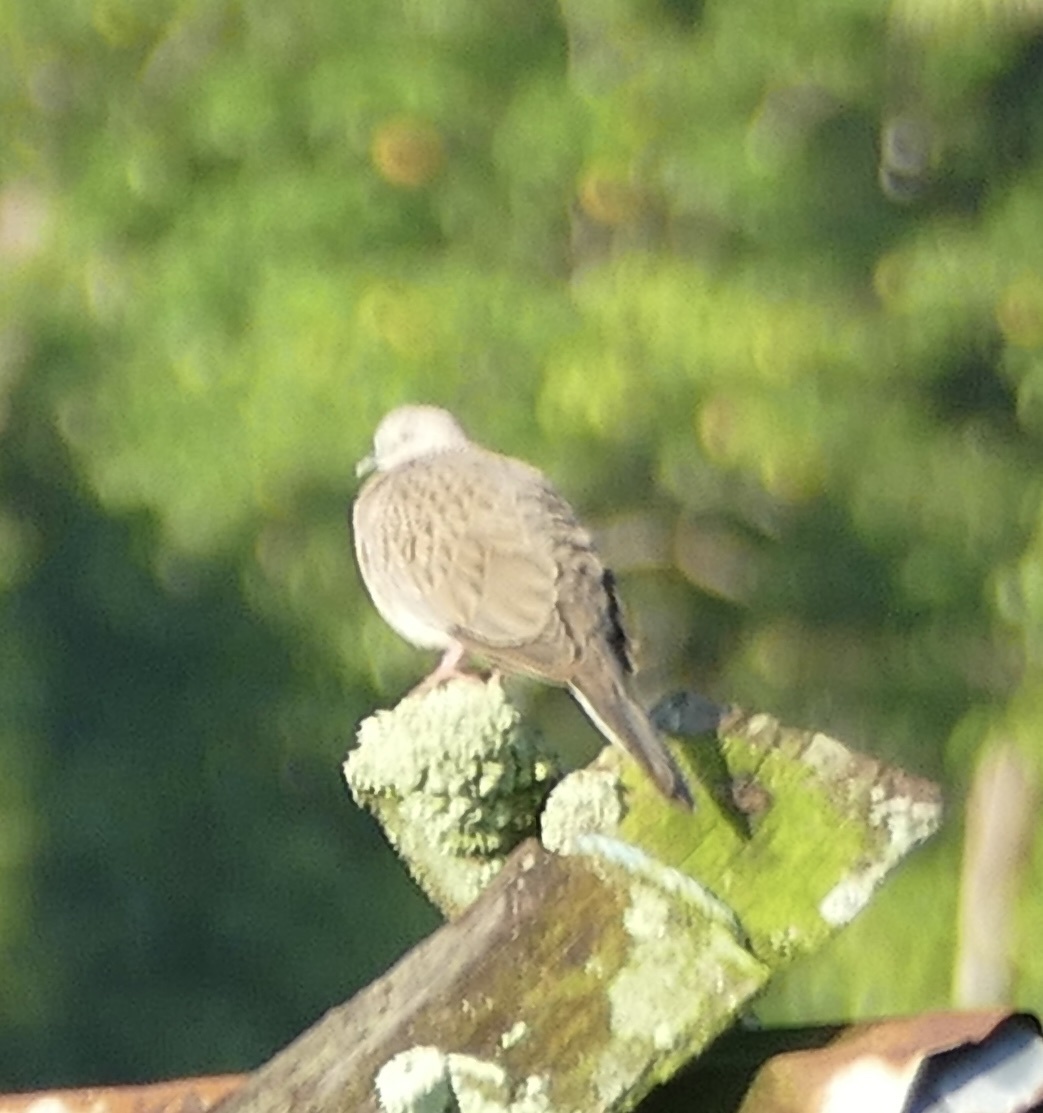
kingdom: Animalia
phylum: Chordata
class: Aves
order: Columbiformes
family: Columbidae
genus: Spilopelia
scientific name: Spilopelia chinensis
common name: Spotted dove
